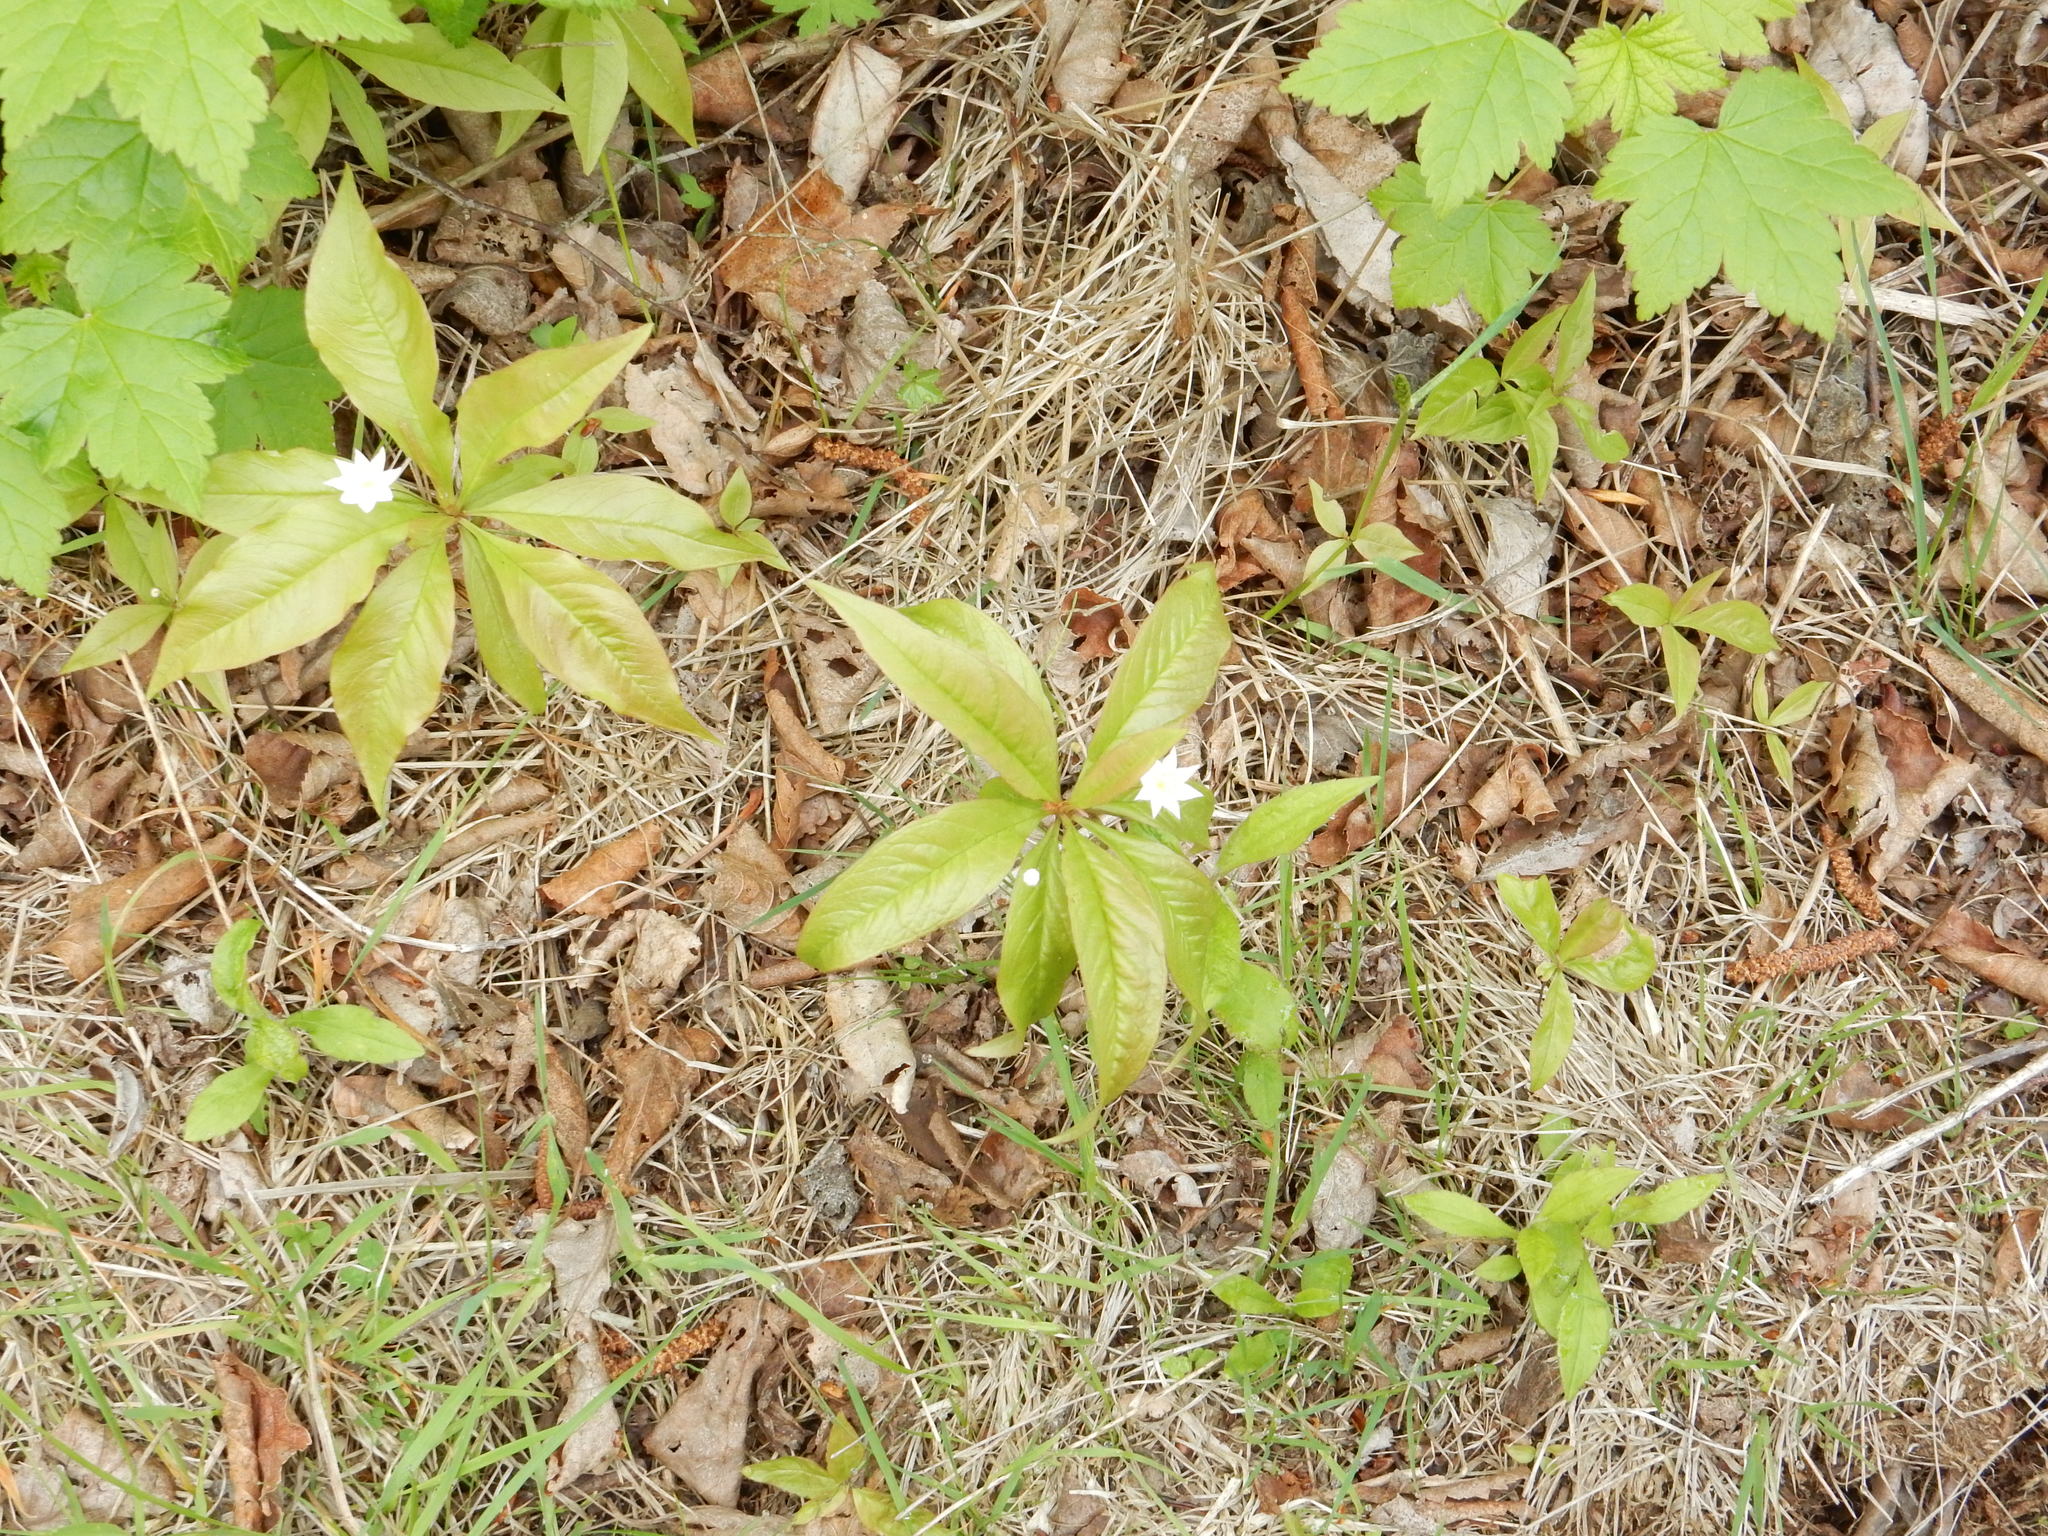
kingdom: Plantae
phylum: Tracheophyta
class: Magnoliopsida
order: Ericales
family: Primulaceae
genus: Lysimachia
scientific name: Lysimachia borealis
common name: American starflower
